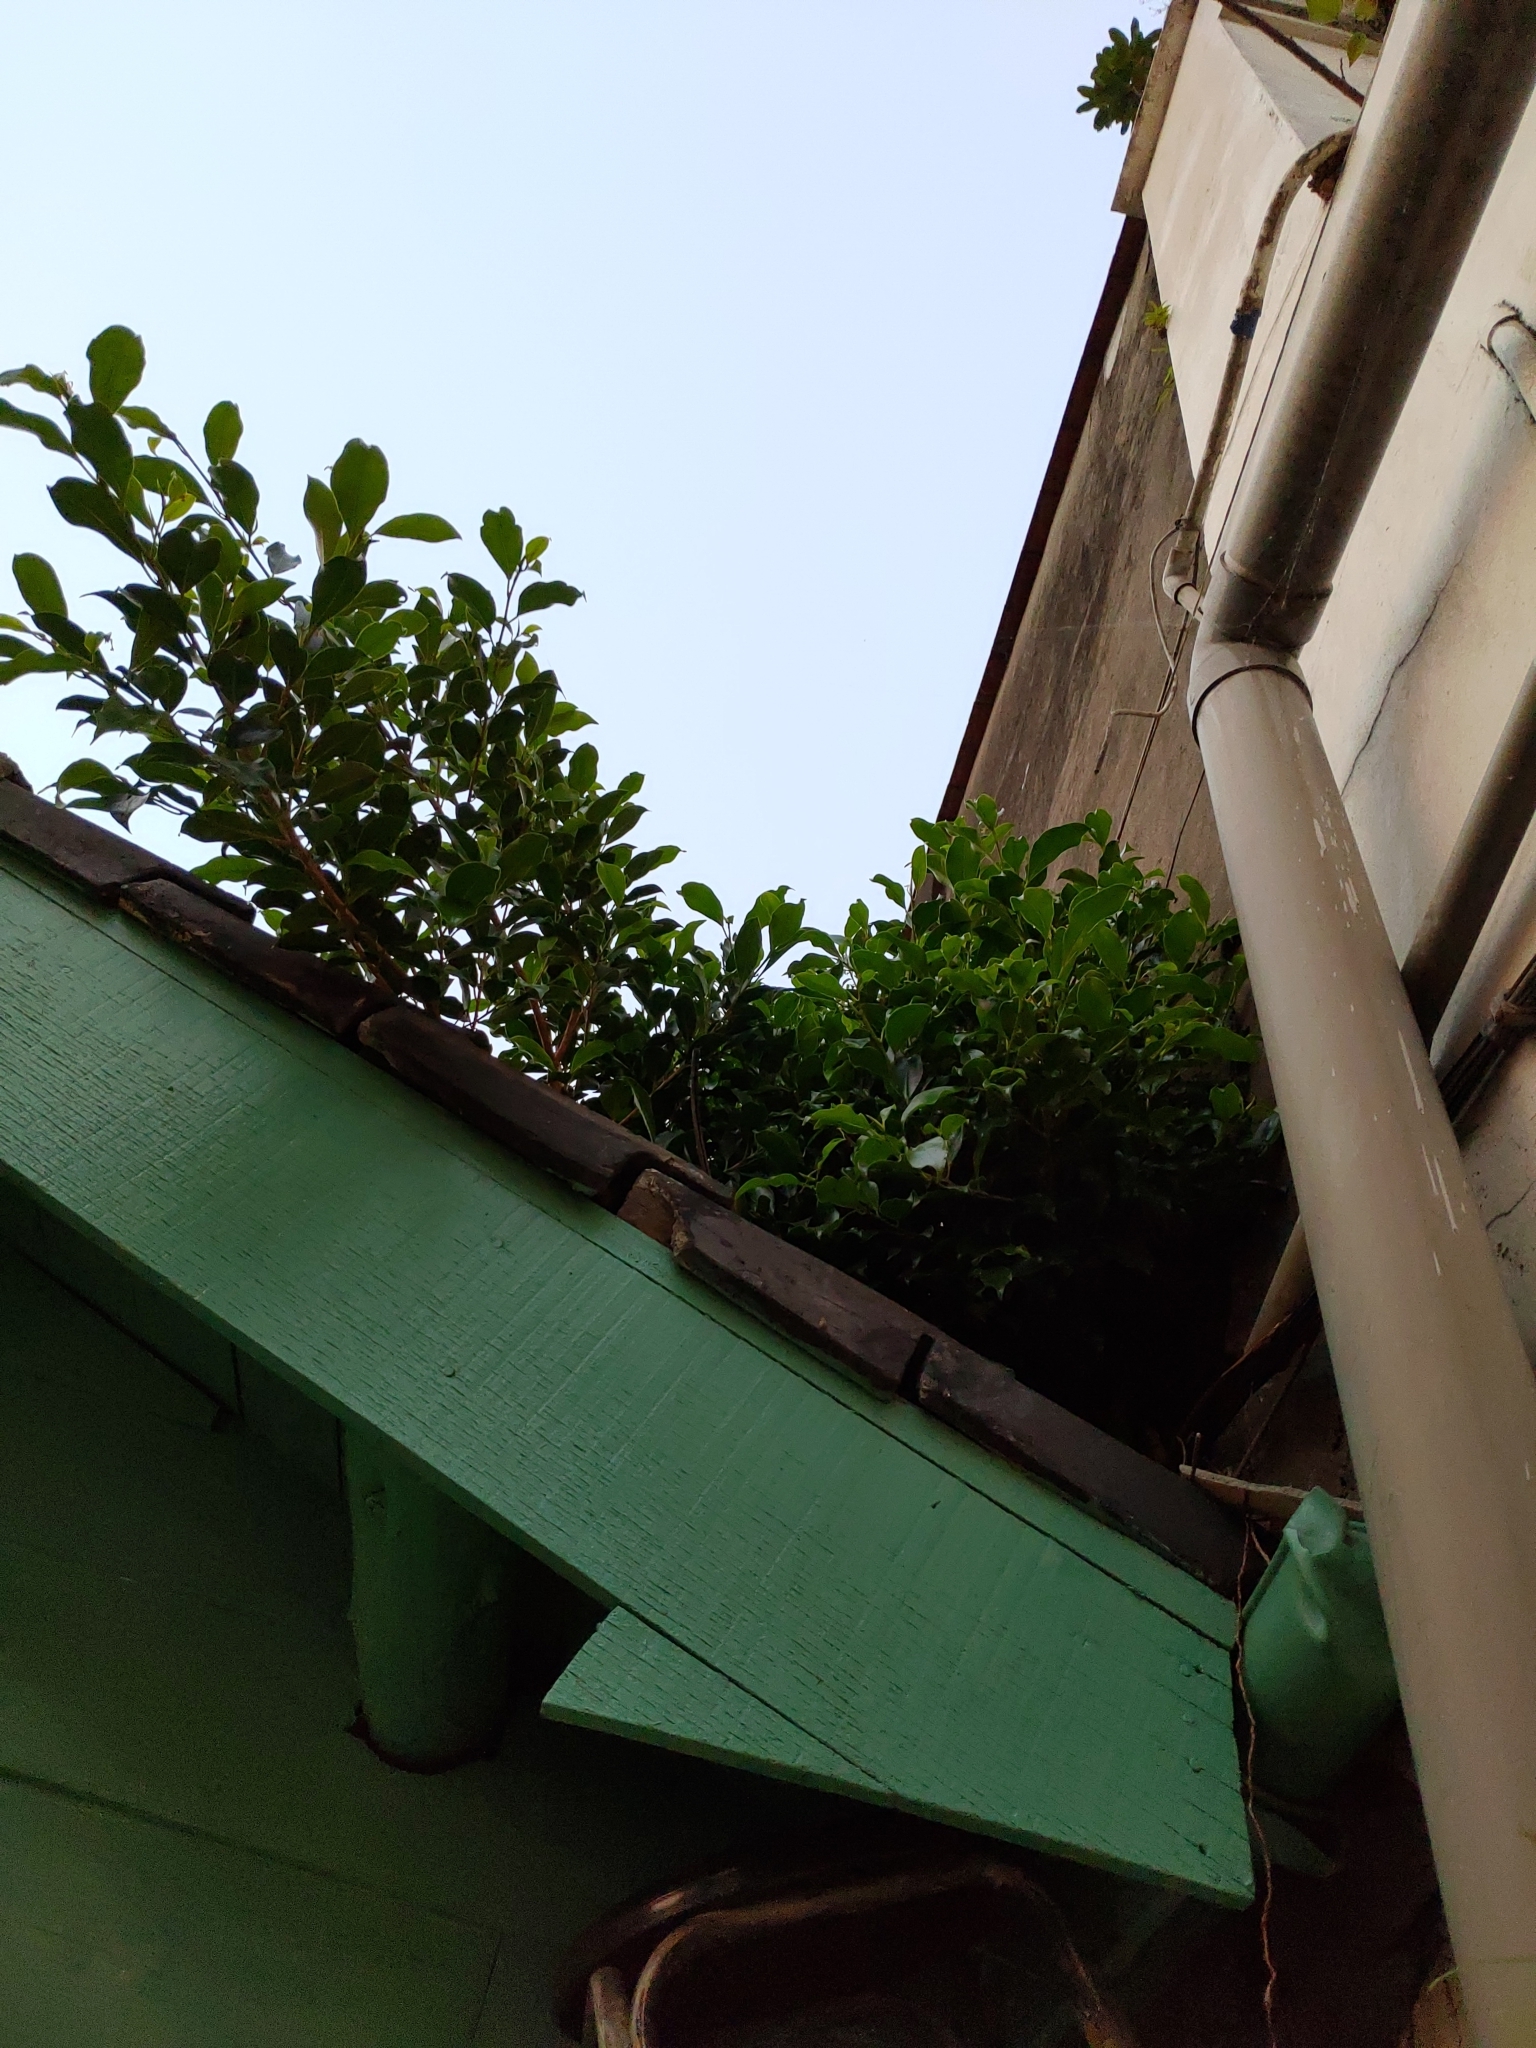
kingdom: Plantae
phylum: Tracheophyta
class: Magnoliopsida
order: Rosales
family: Moraceae
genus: Ficus
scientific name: Ficus microcarpa
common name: Chinese banyan
